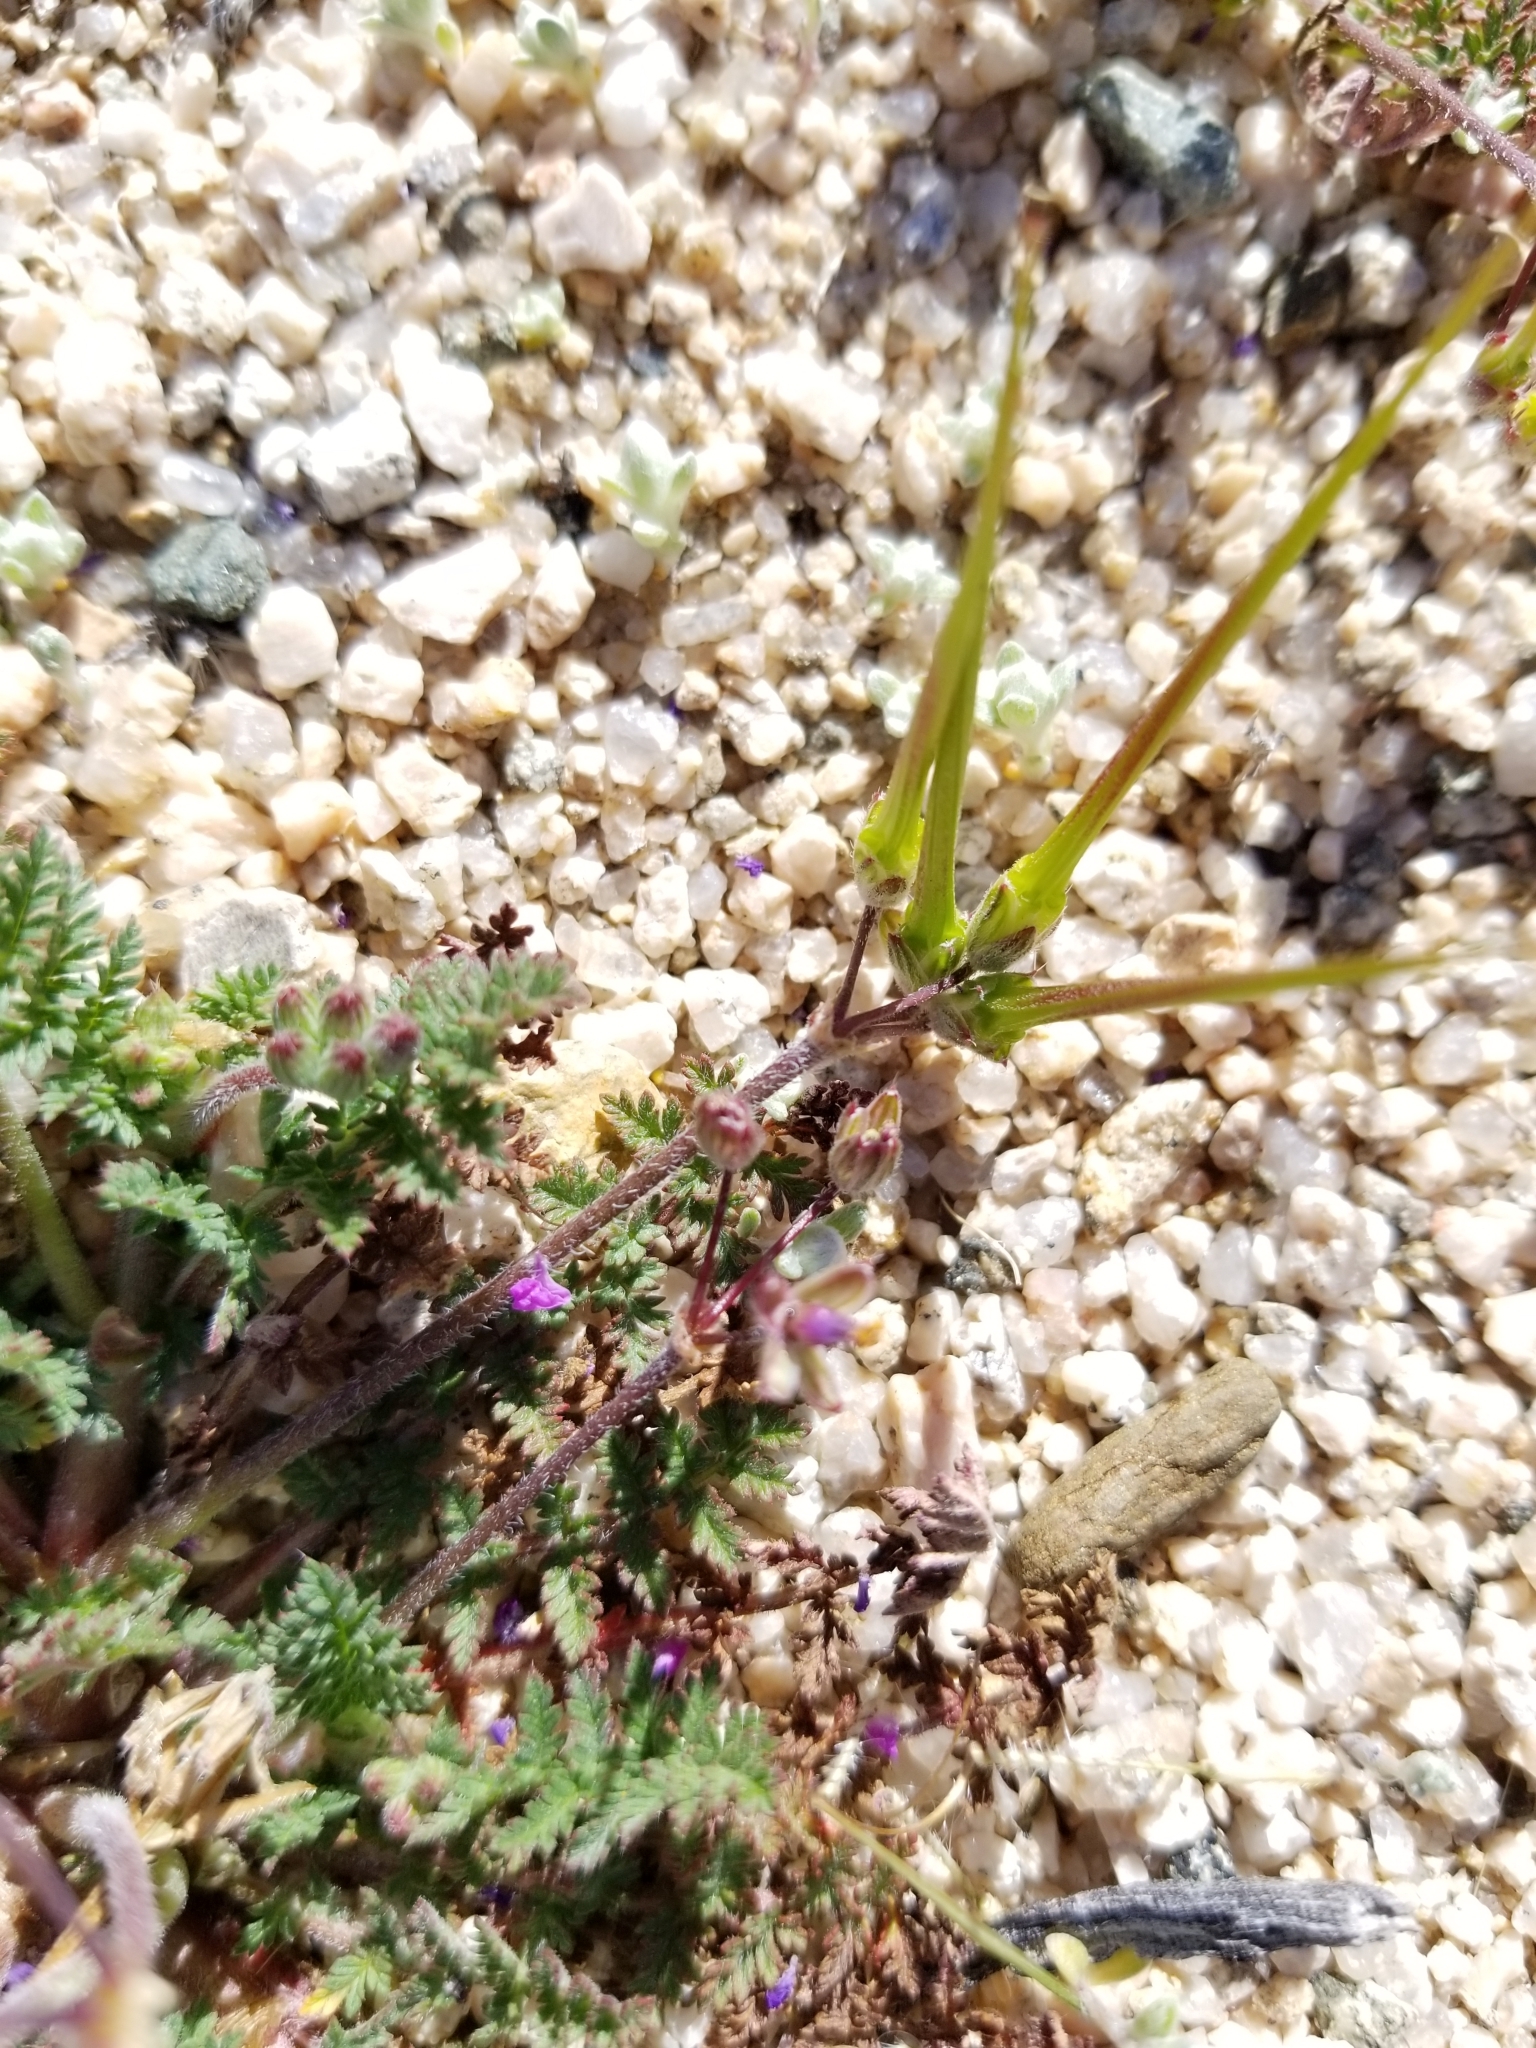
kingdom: Plantae
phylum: Tracheophyta
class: Magnoliopsida
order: Geraniales
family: Geraniaceae
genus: Erodium
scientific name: Erodium cicutarium
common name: Common stork's-bill
